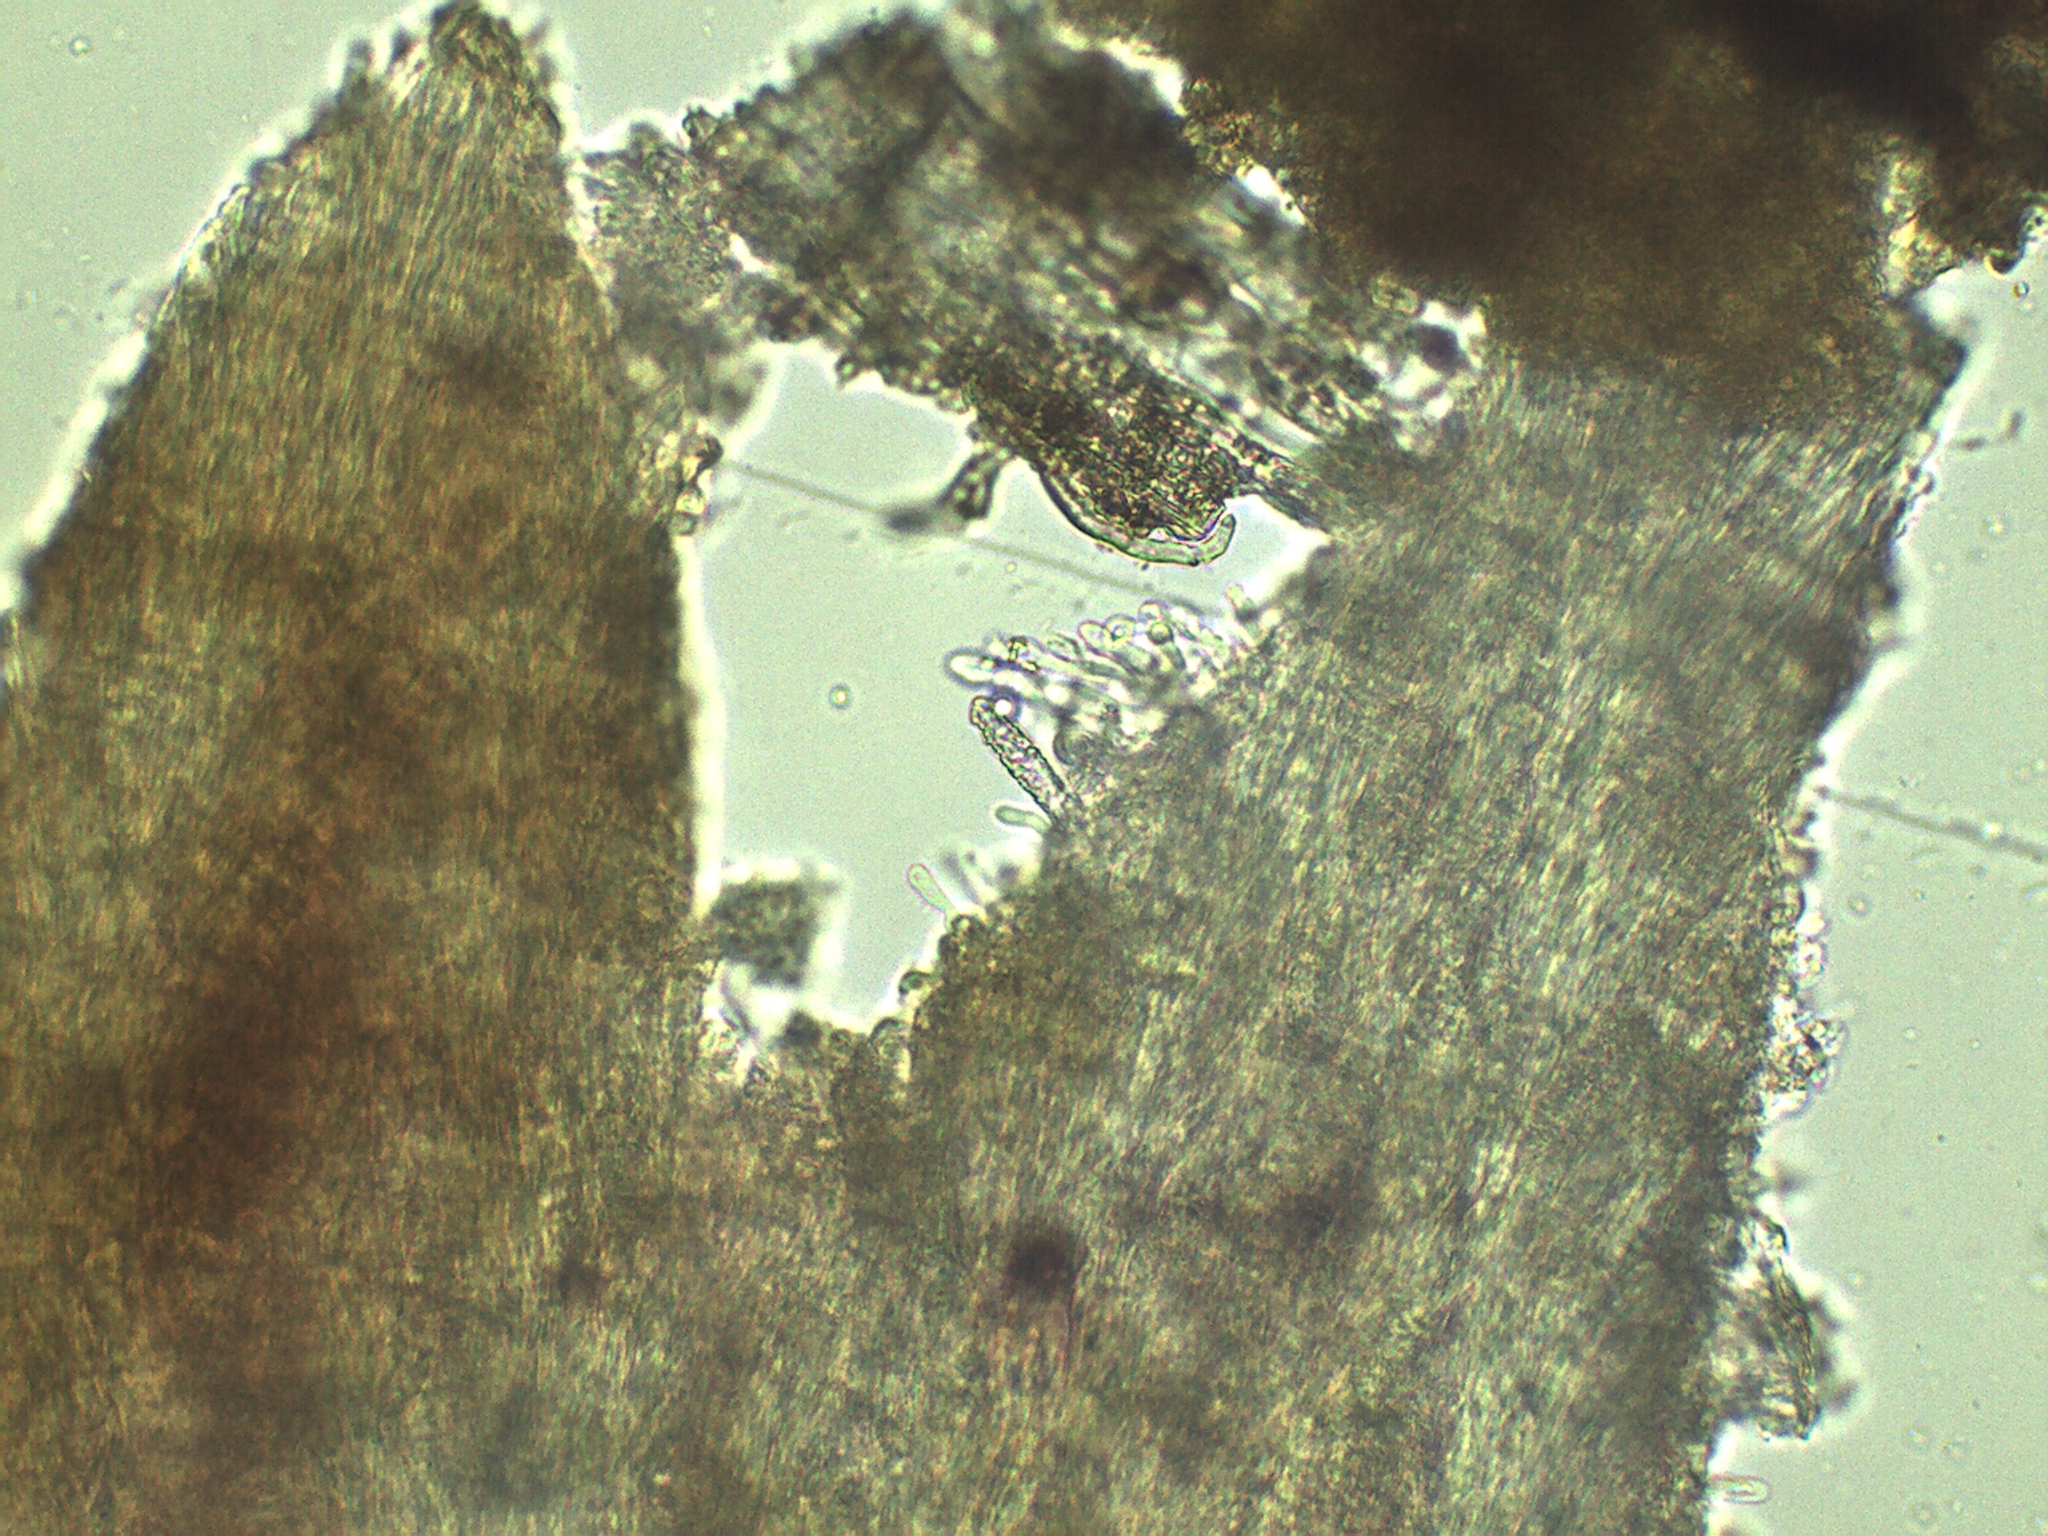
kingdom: Fungi
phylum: Basidiomycota
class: Agaricomycetes
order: Polyporales
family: Steccherinaceae
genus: Steccherinum
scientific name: Steccherinum bourdotii
